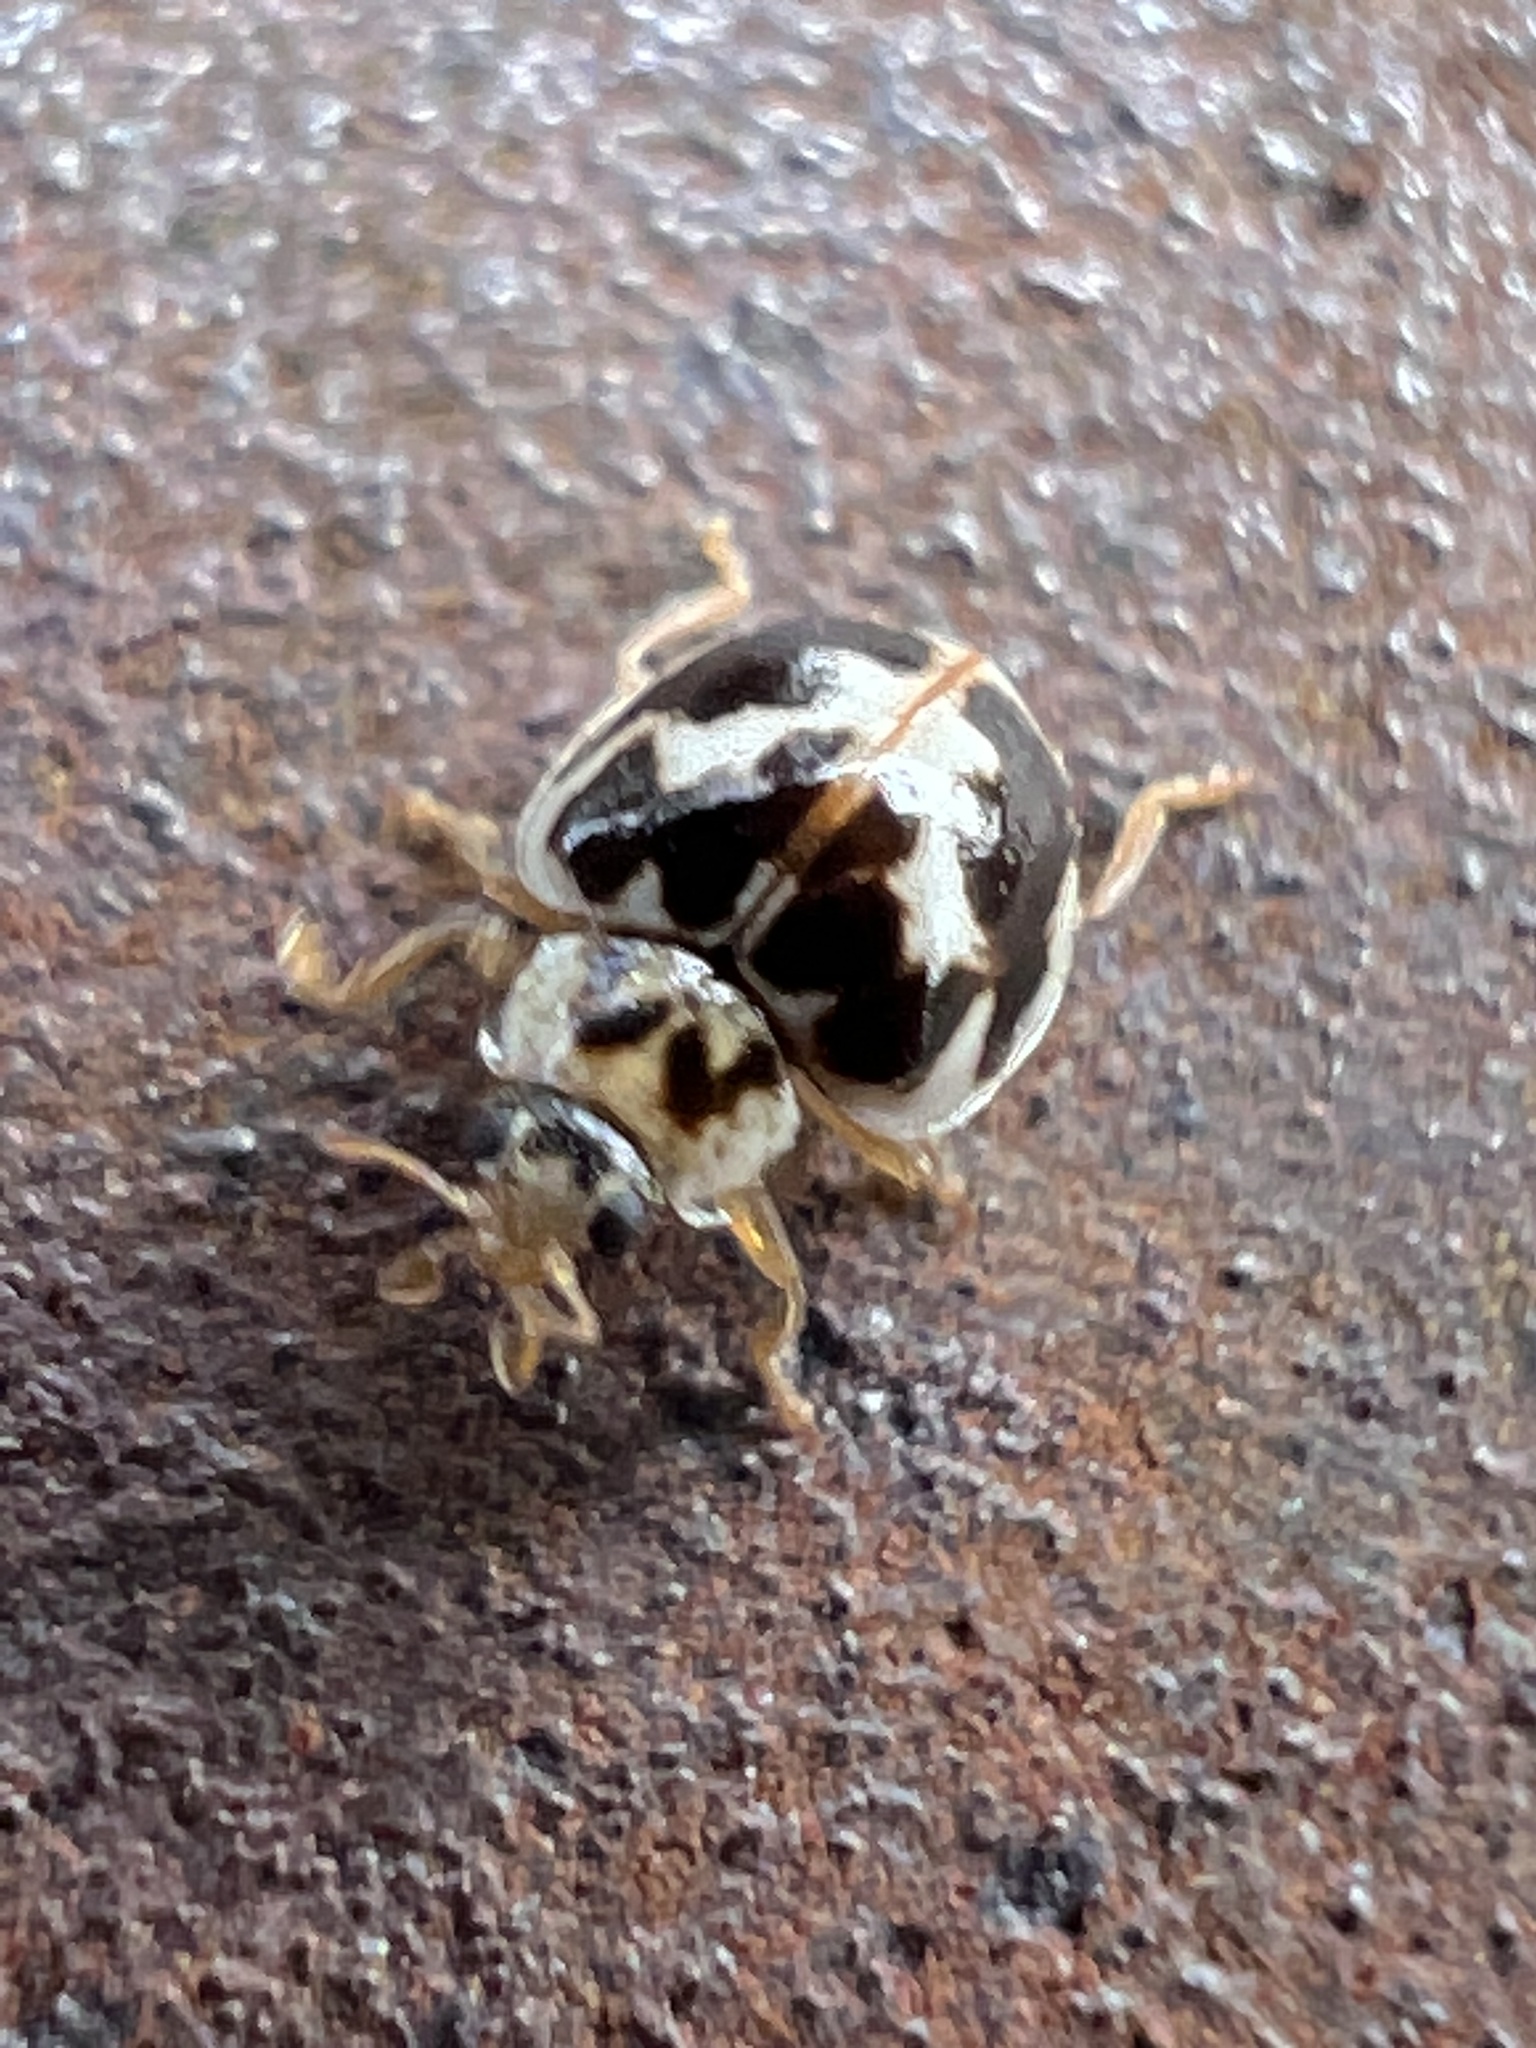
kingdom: Animalia
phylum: Arthropoda
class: Insecta
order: Coleoptera
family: Coccinellidae
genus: Psyllobora
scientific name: Psyllobora vigintimaculata
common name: Ladybird beetle
